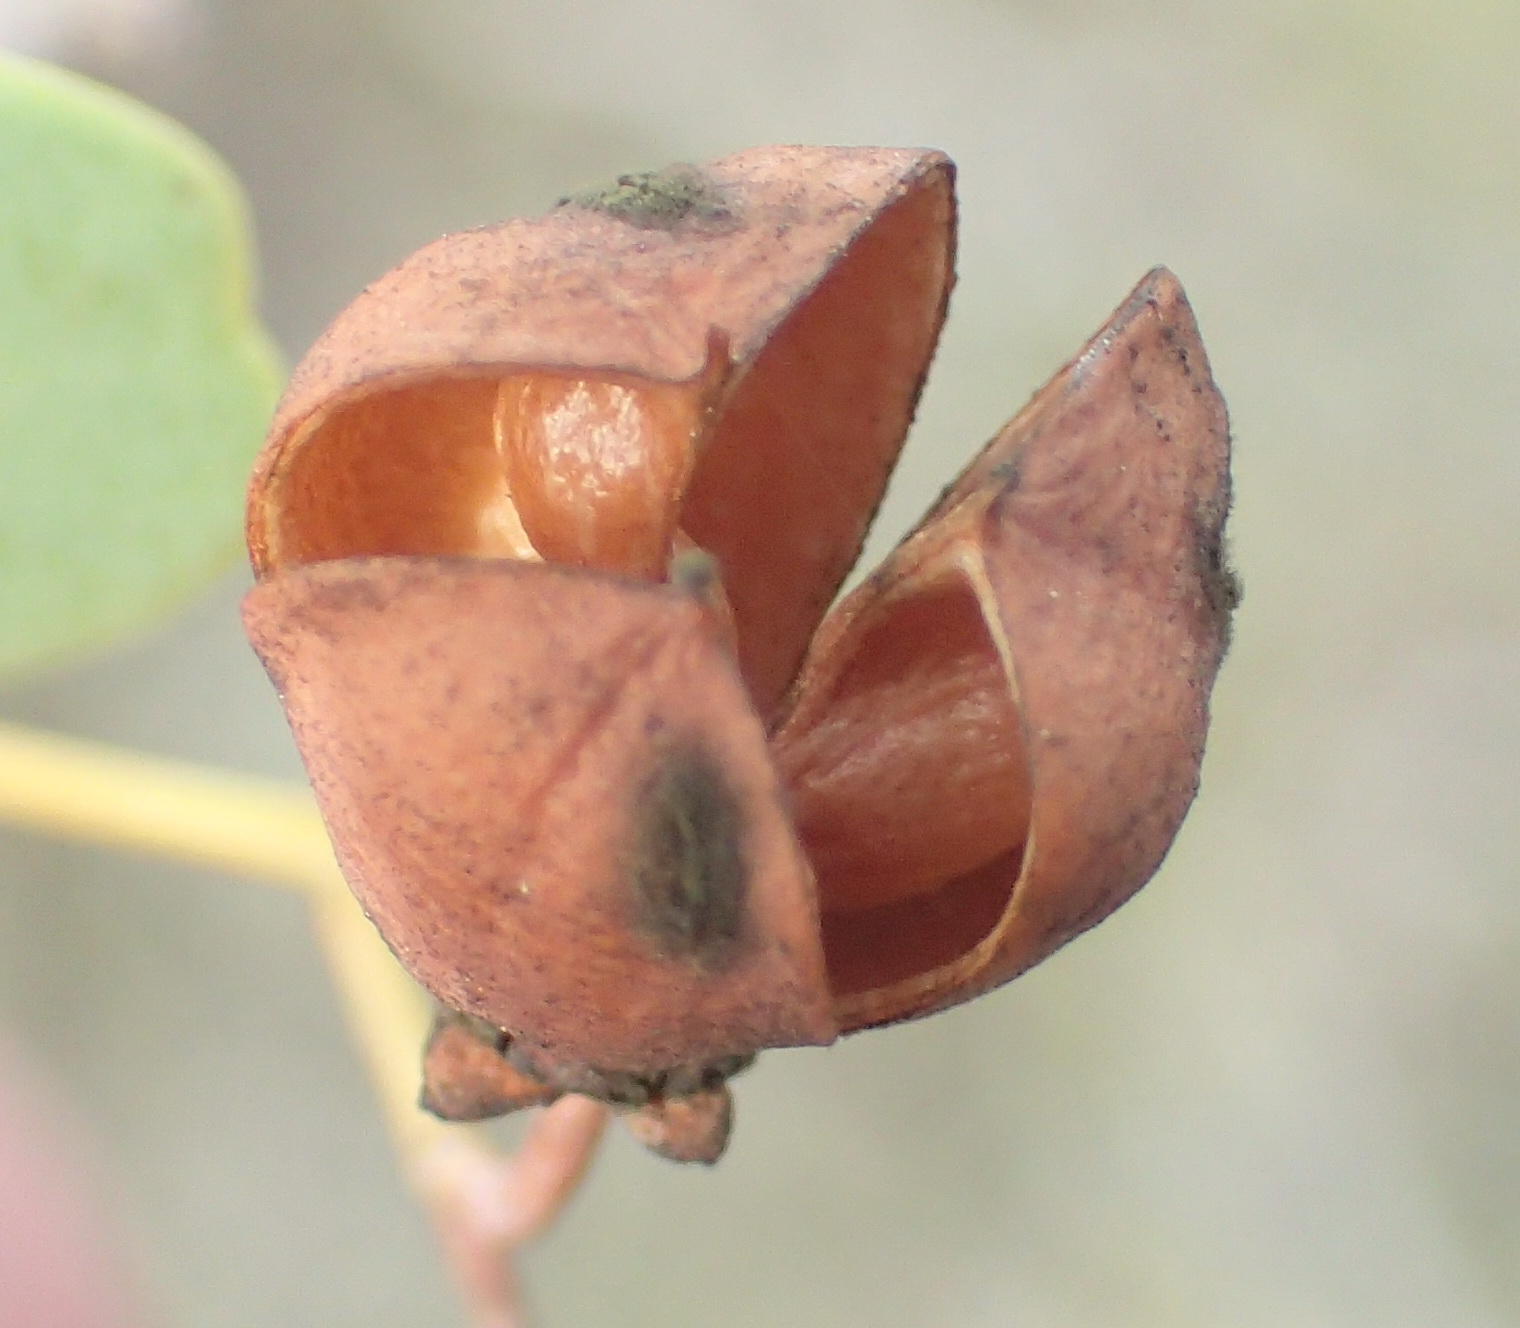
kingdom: Plantae
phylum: Tracheophyta
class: Magnoliopsida
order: Celastrales
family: Celastraceae
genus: Gloveria
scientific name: Gloveria integrifolia
